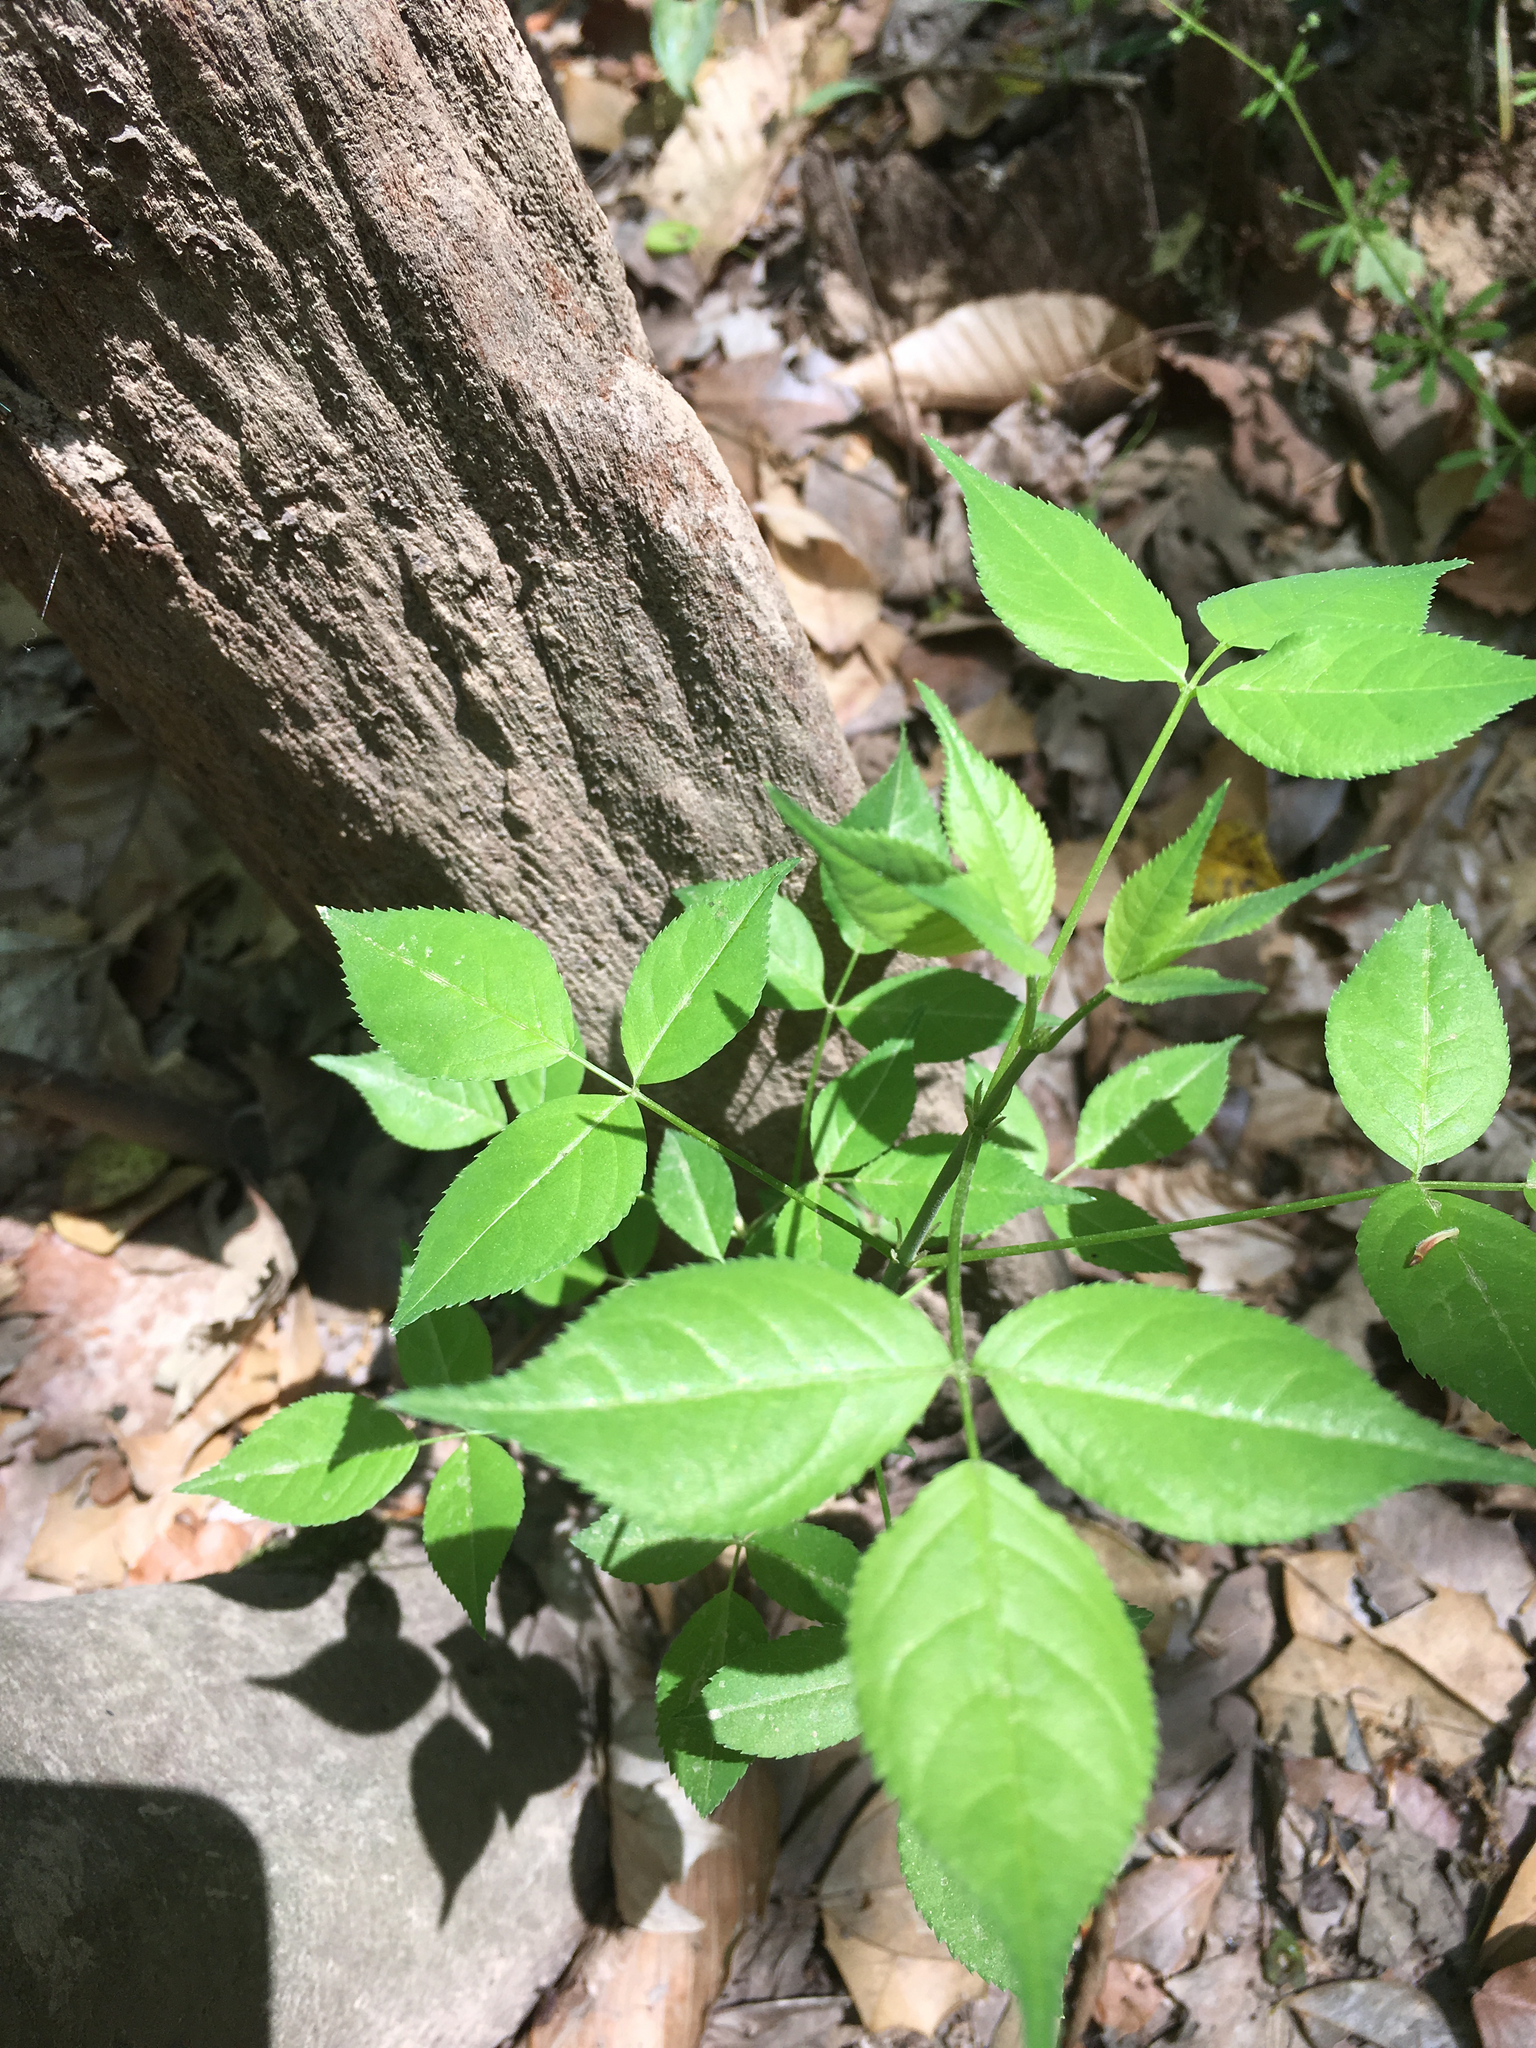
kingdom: Plantae
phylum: Tracheophyta
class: Magnoliopsida
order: Crossosomatales
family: Staphyleaceae
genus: Staphylea
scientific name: Staphylea trifolia
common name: American bladdernut
